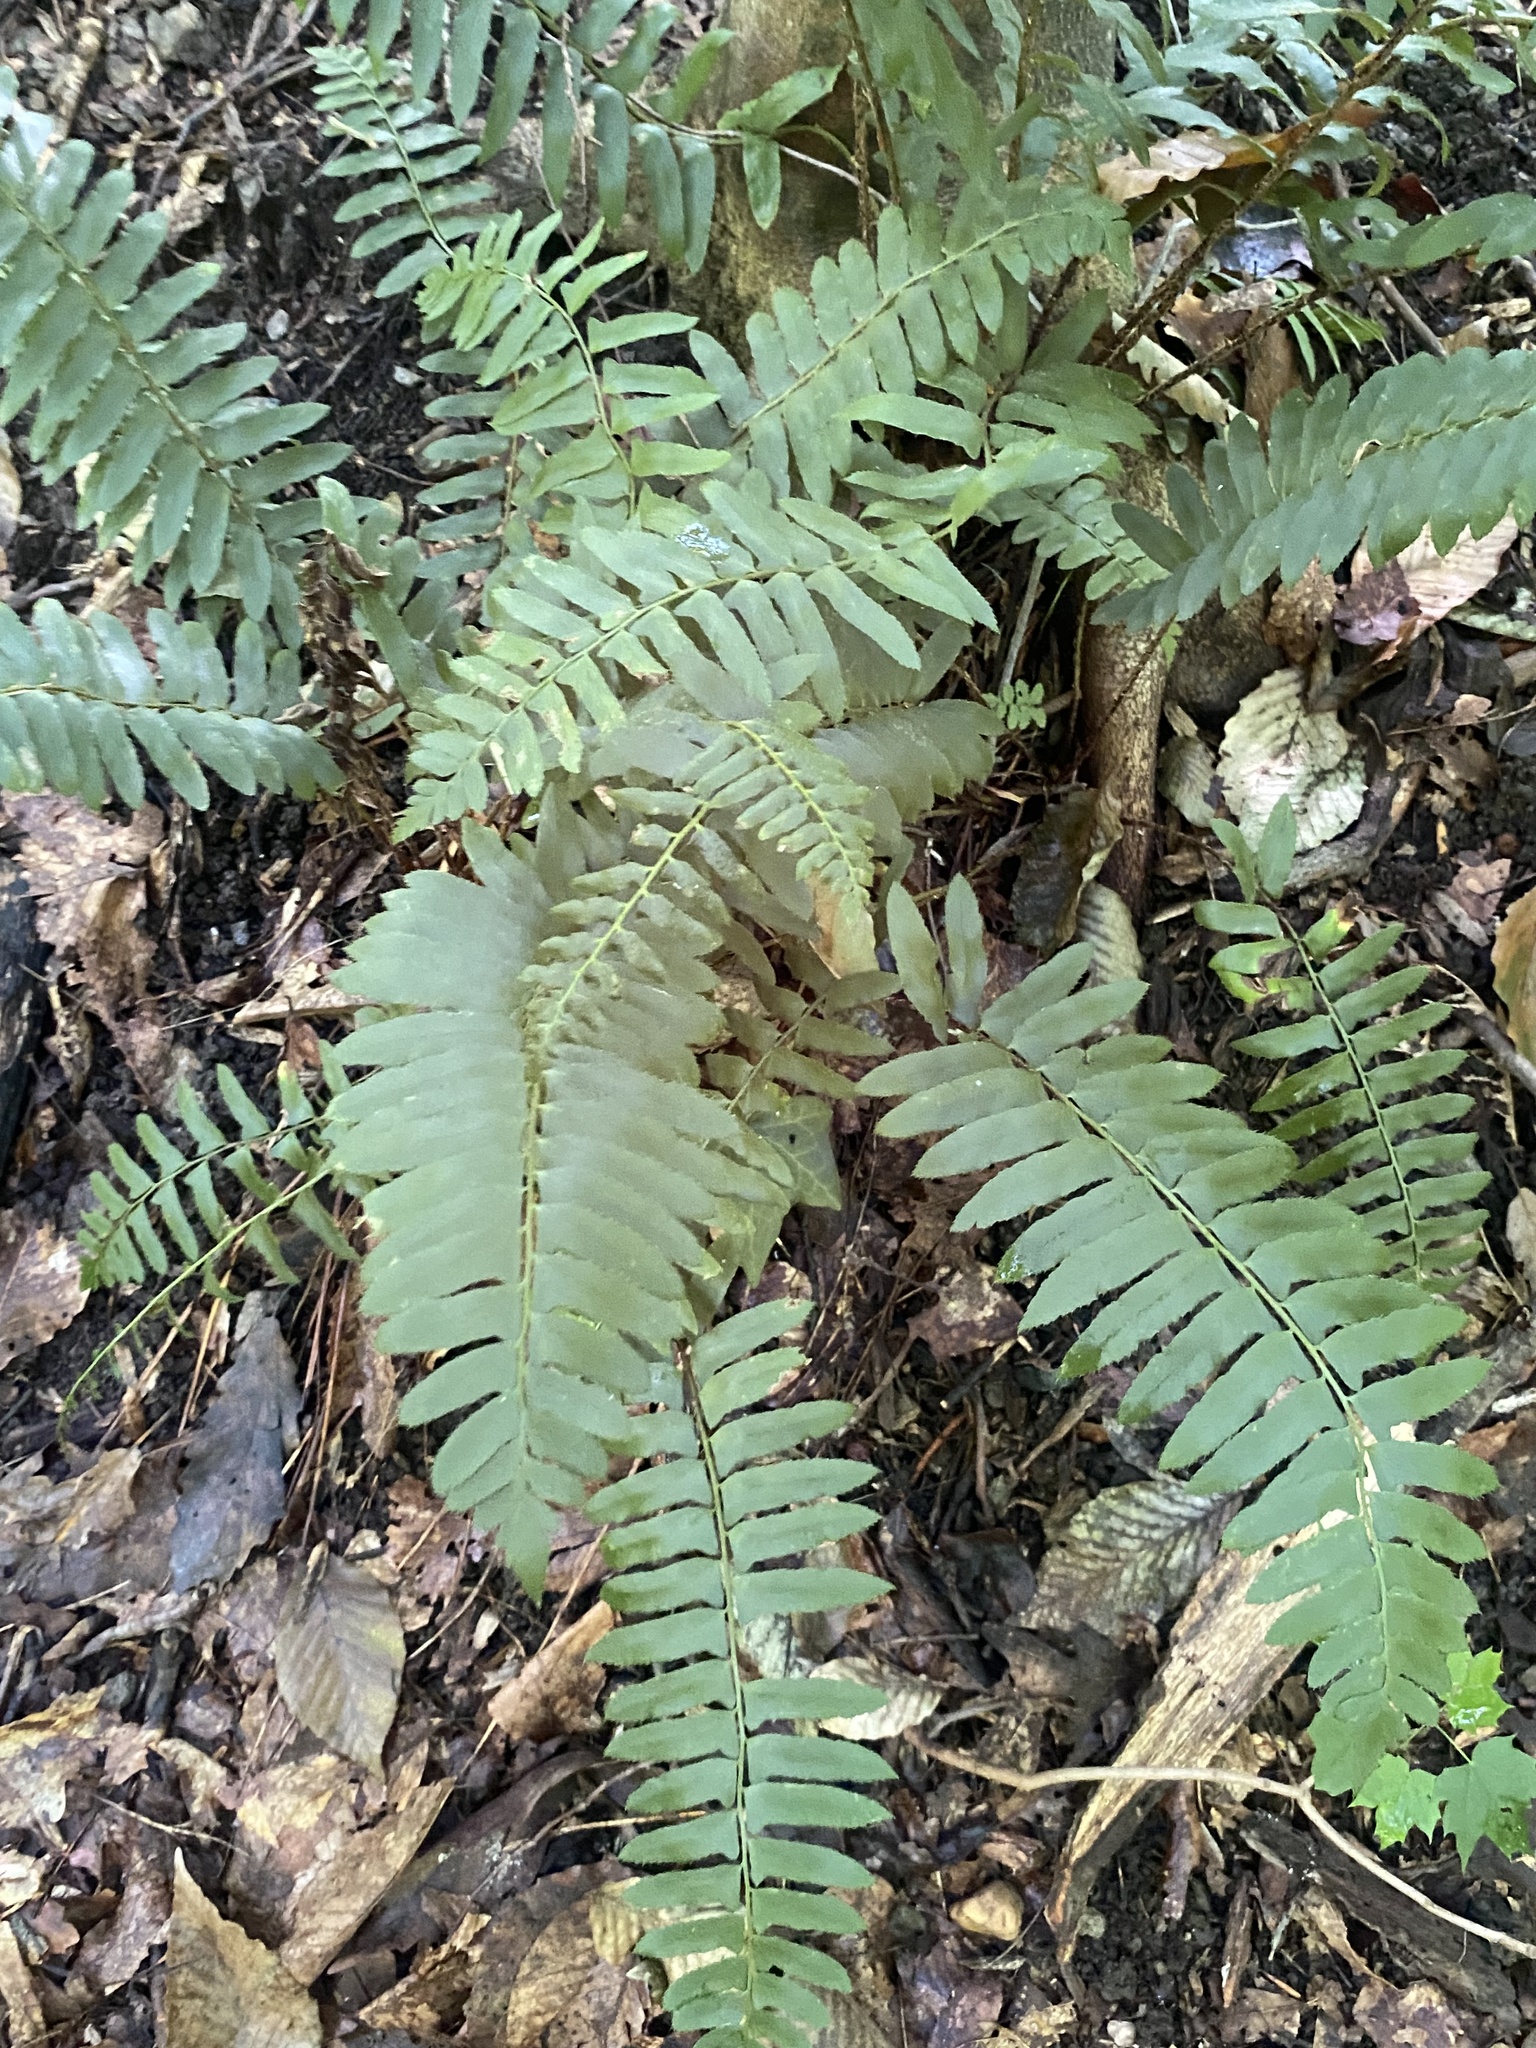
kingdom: Plantae
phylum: Tracheophyta
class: Polypodiopsida
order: Polypodiales
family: Dryopteridaceae
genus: Polystichum
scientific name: Polystichum acrostichoides
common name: Christmas fern
